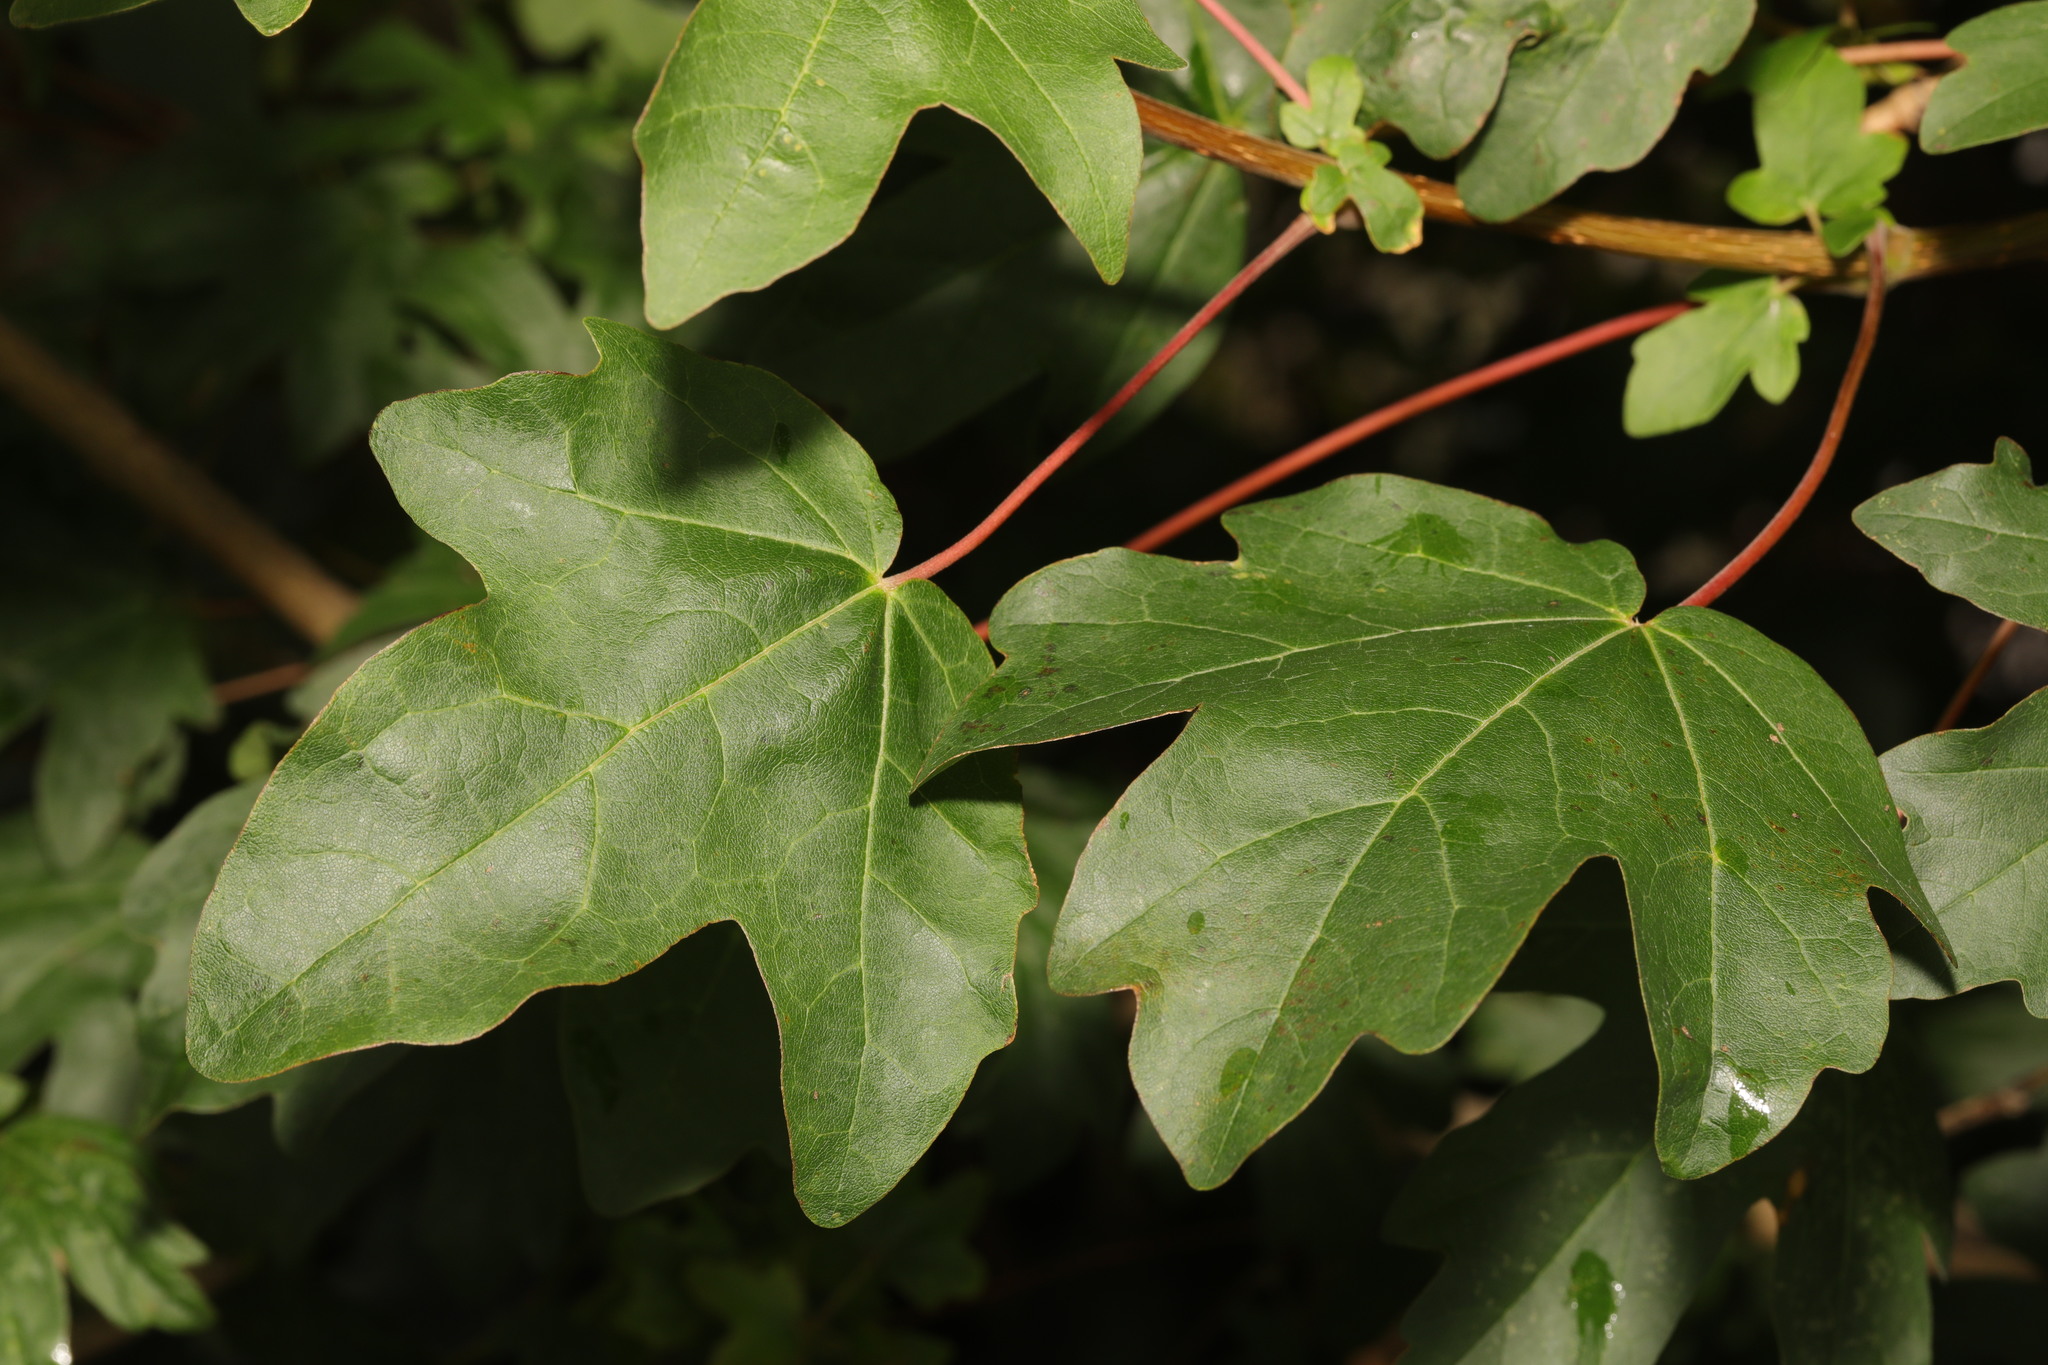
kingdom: Plantae
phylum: Tracheophyta
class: Magnoliopsida
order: Sapindales
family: Sapindaceae
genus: Acer
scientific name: Acer campestre
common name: Field maple
